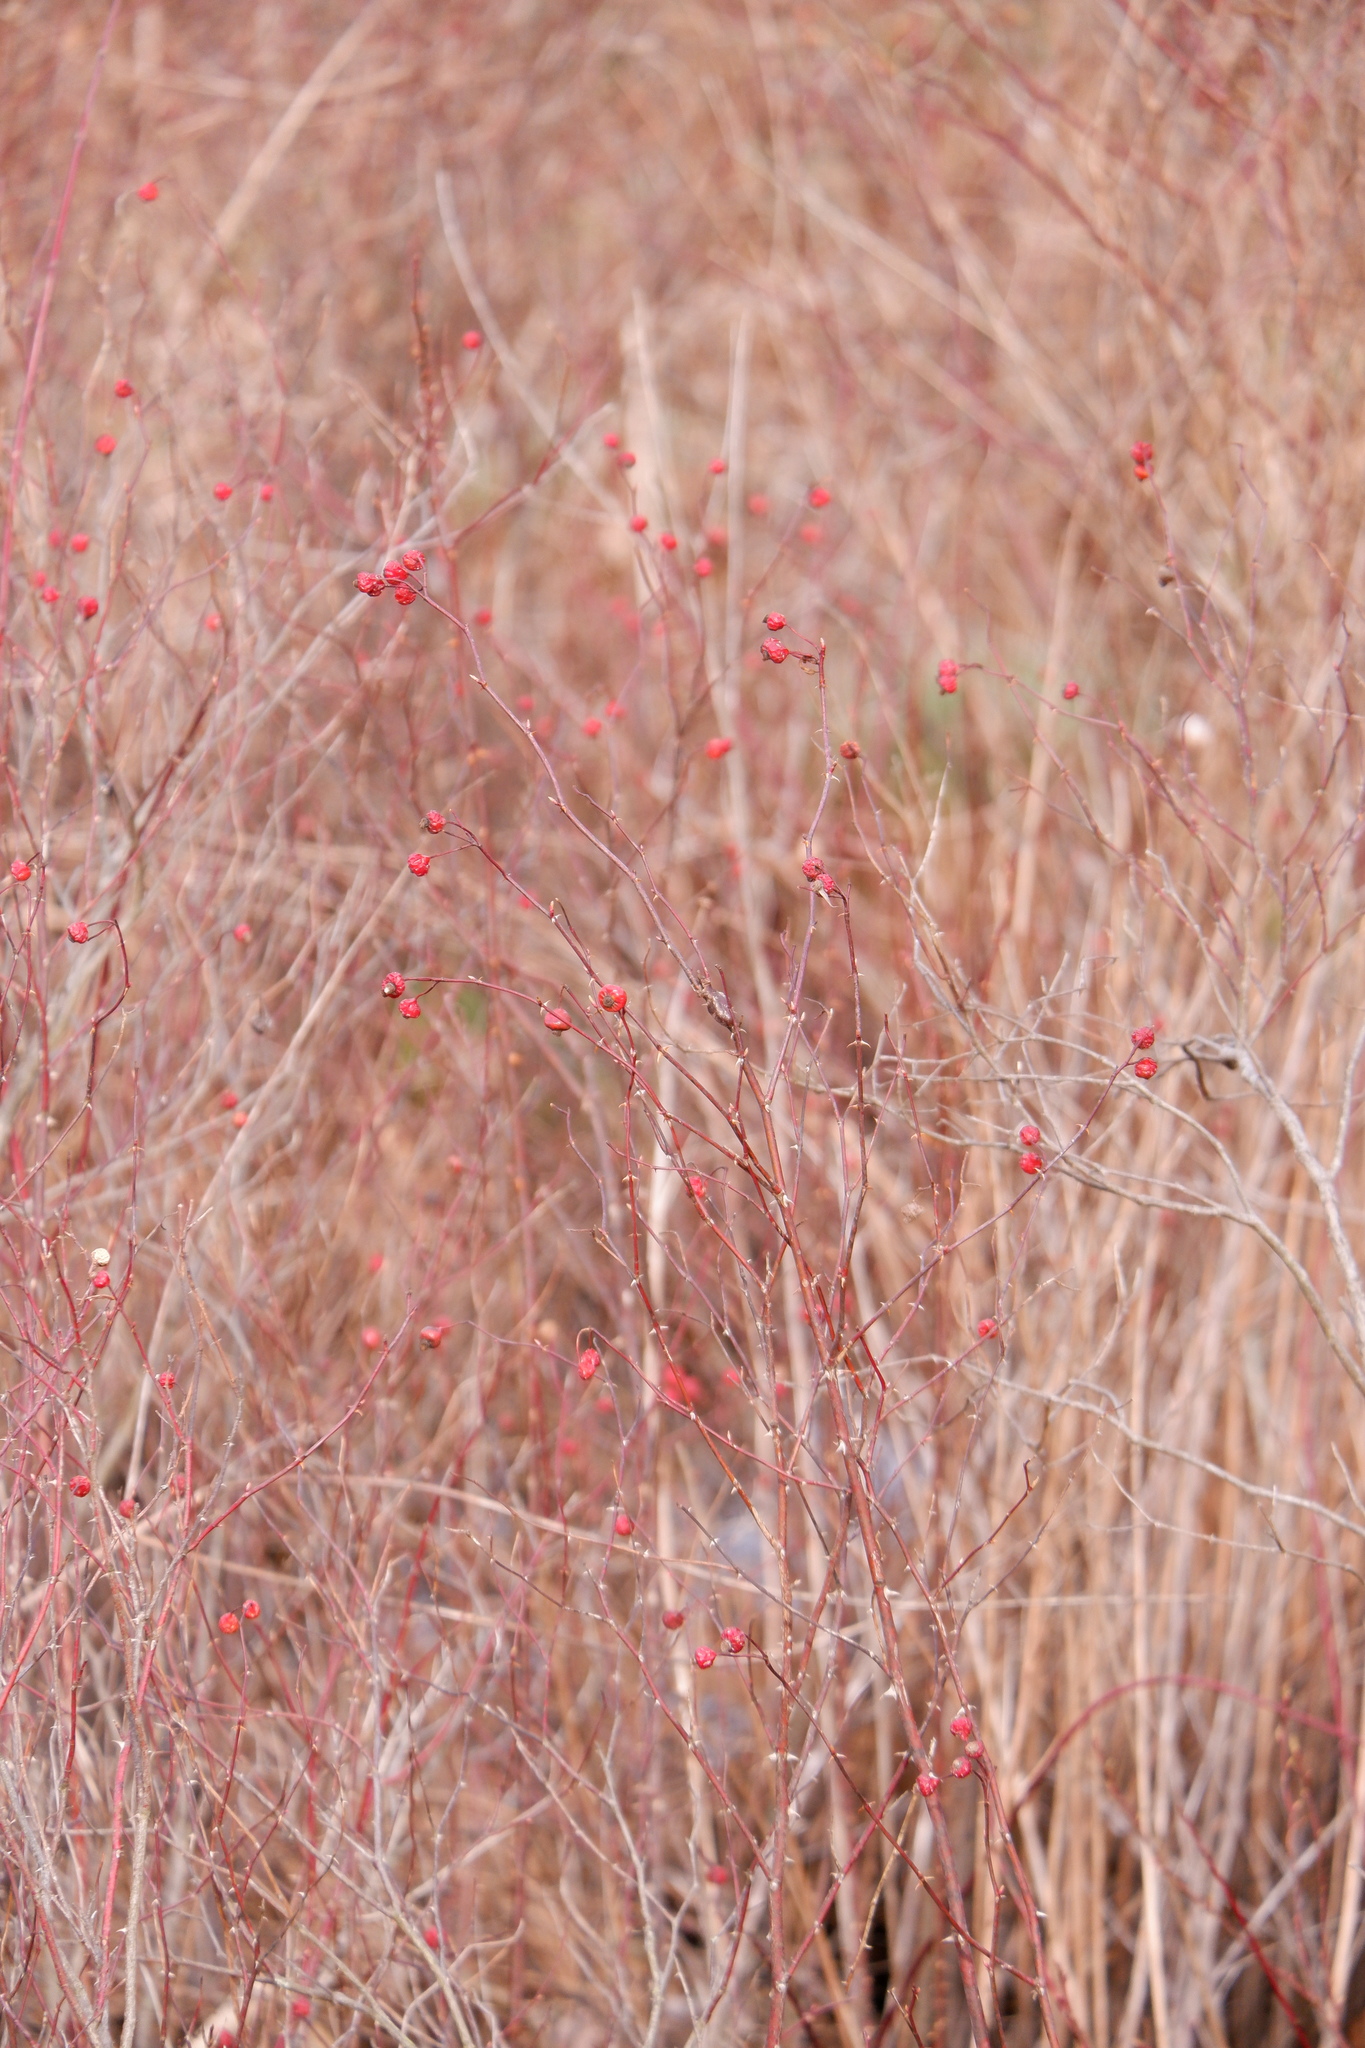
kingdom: Plantae
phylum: Tracheophyta
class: Magnoliopsida
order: Rosales
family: Rosaceae
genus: Rosa
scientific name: Rosa palustris
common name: Swamp rose
